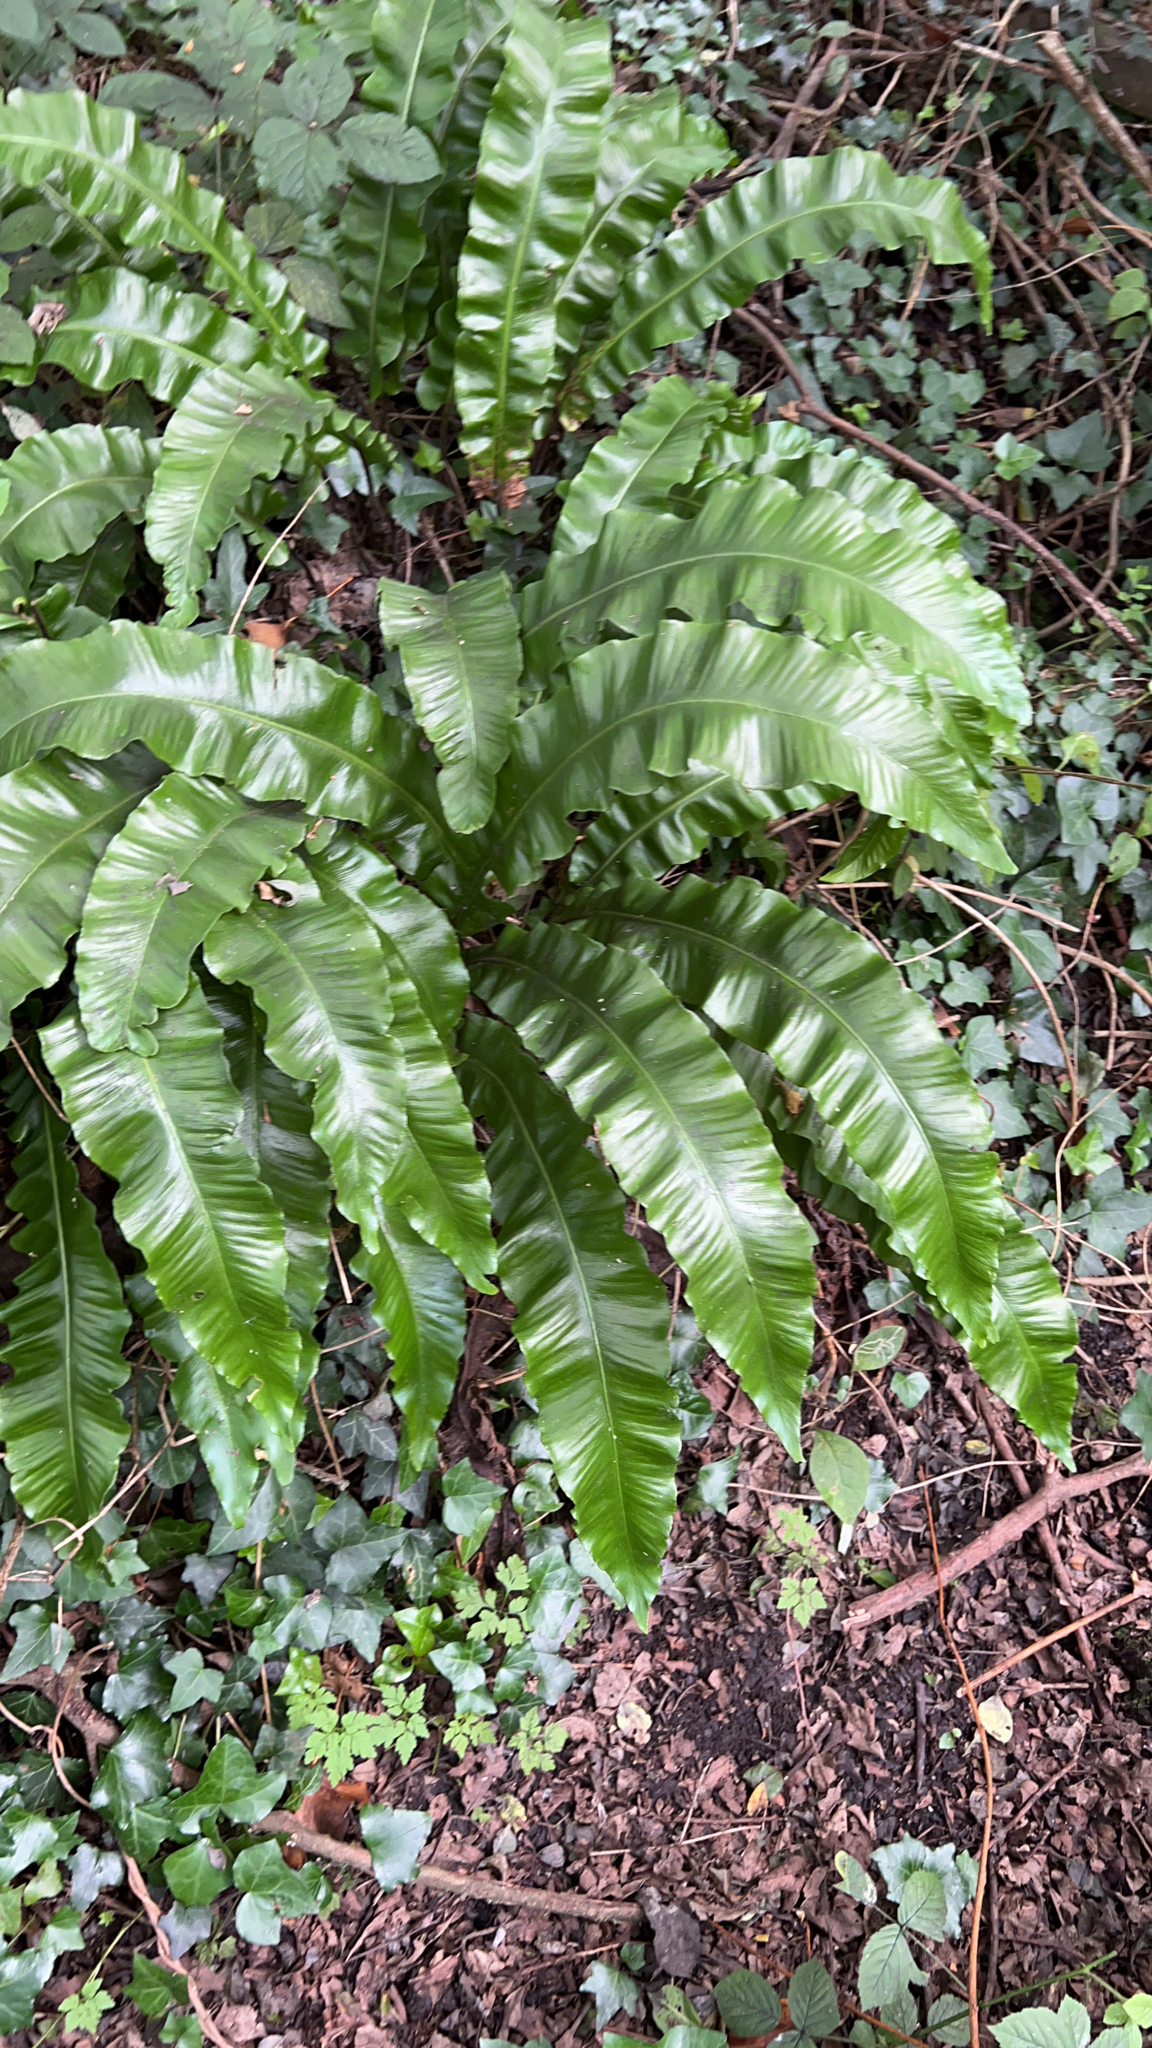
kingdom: Plantae
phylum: Tracheophyta
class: Polypodiopsida
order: Polypodiales
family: Aspleniaceae
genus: Asplenium
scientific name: Asplenium scolopendrium
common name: Hart's-tongue fern
